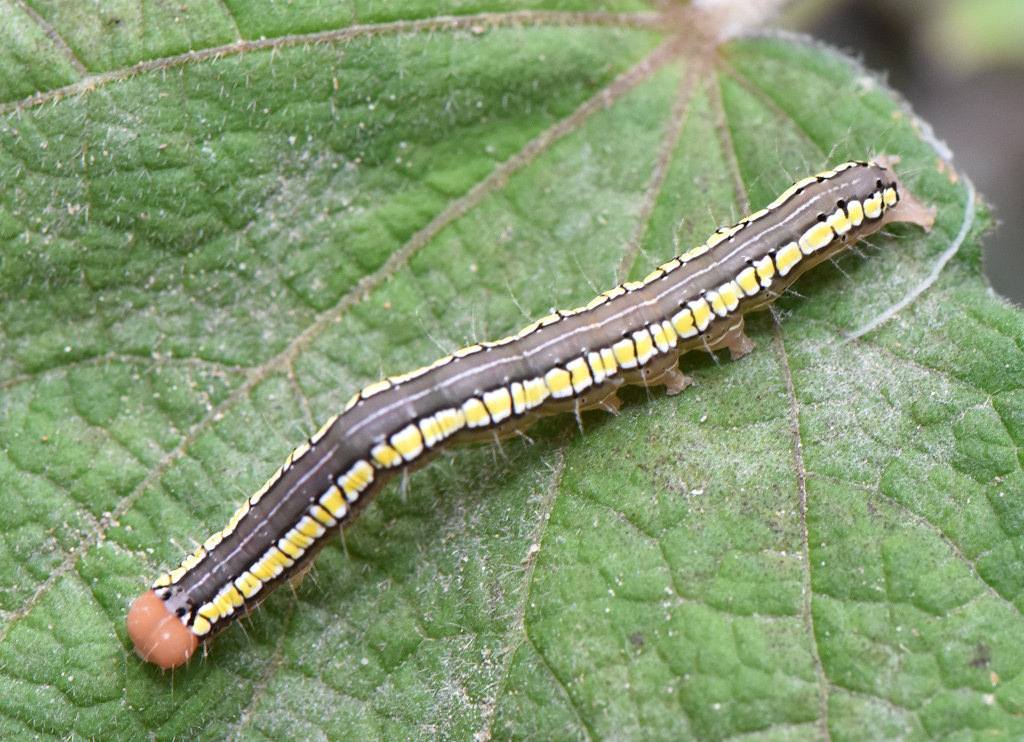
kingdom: Animalia
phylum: Arthropoda
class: Insecta
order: Lepidoptera
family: Erebidae
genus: Anomis
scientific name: Anomis fulvida
